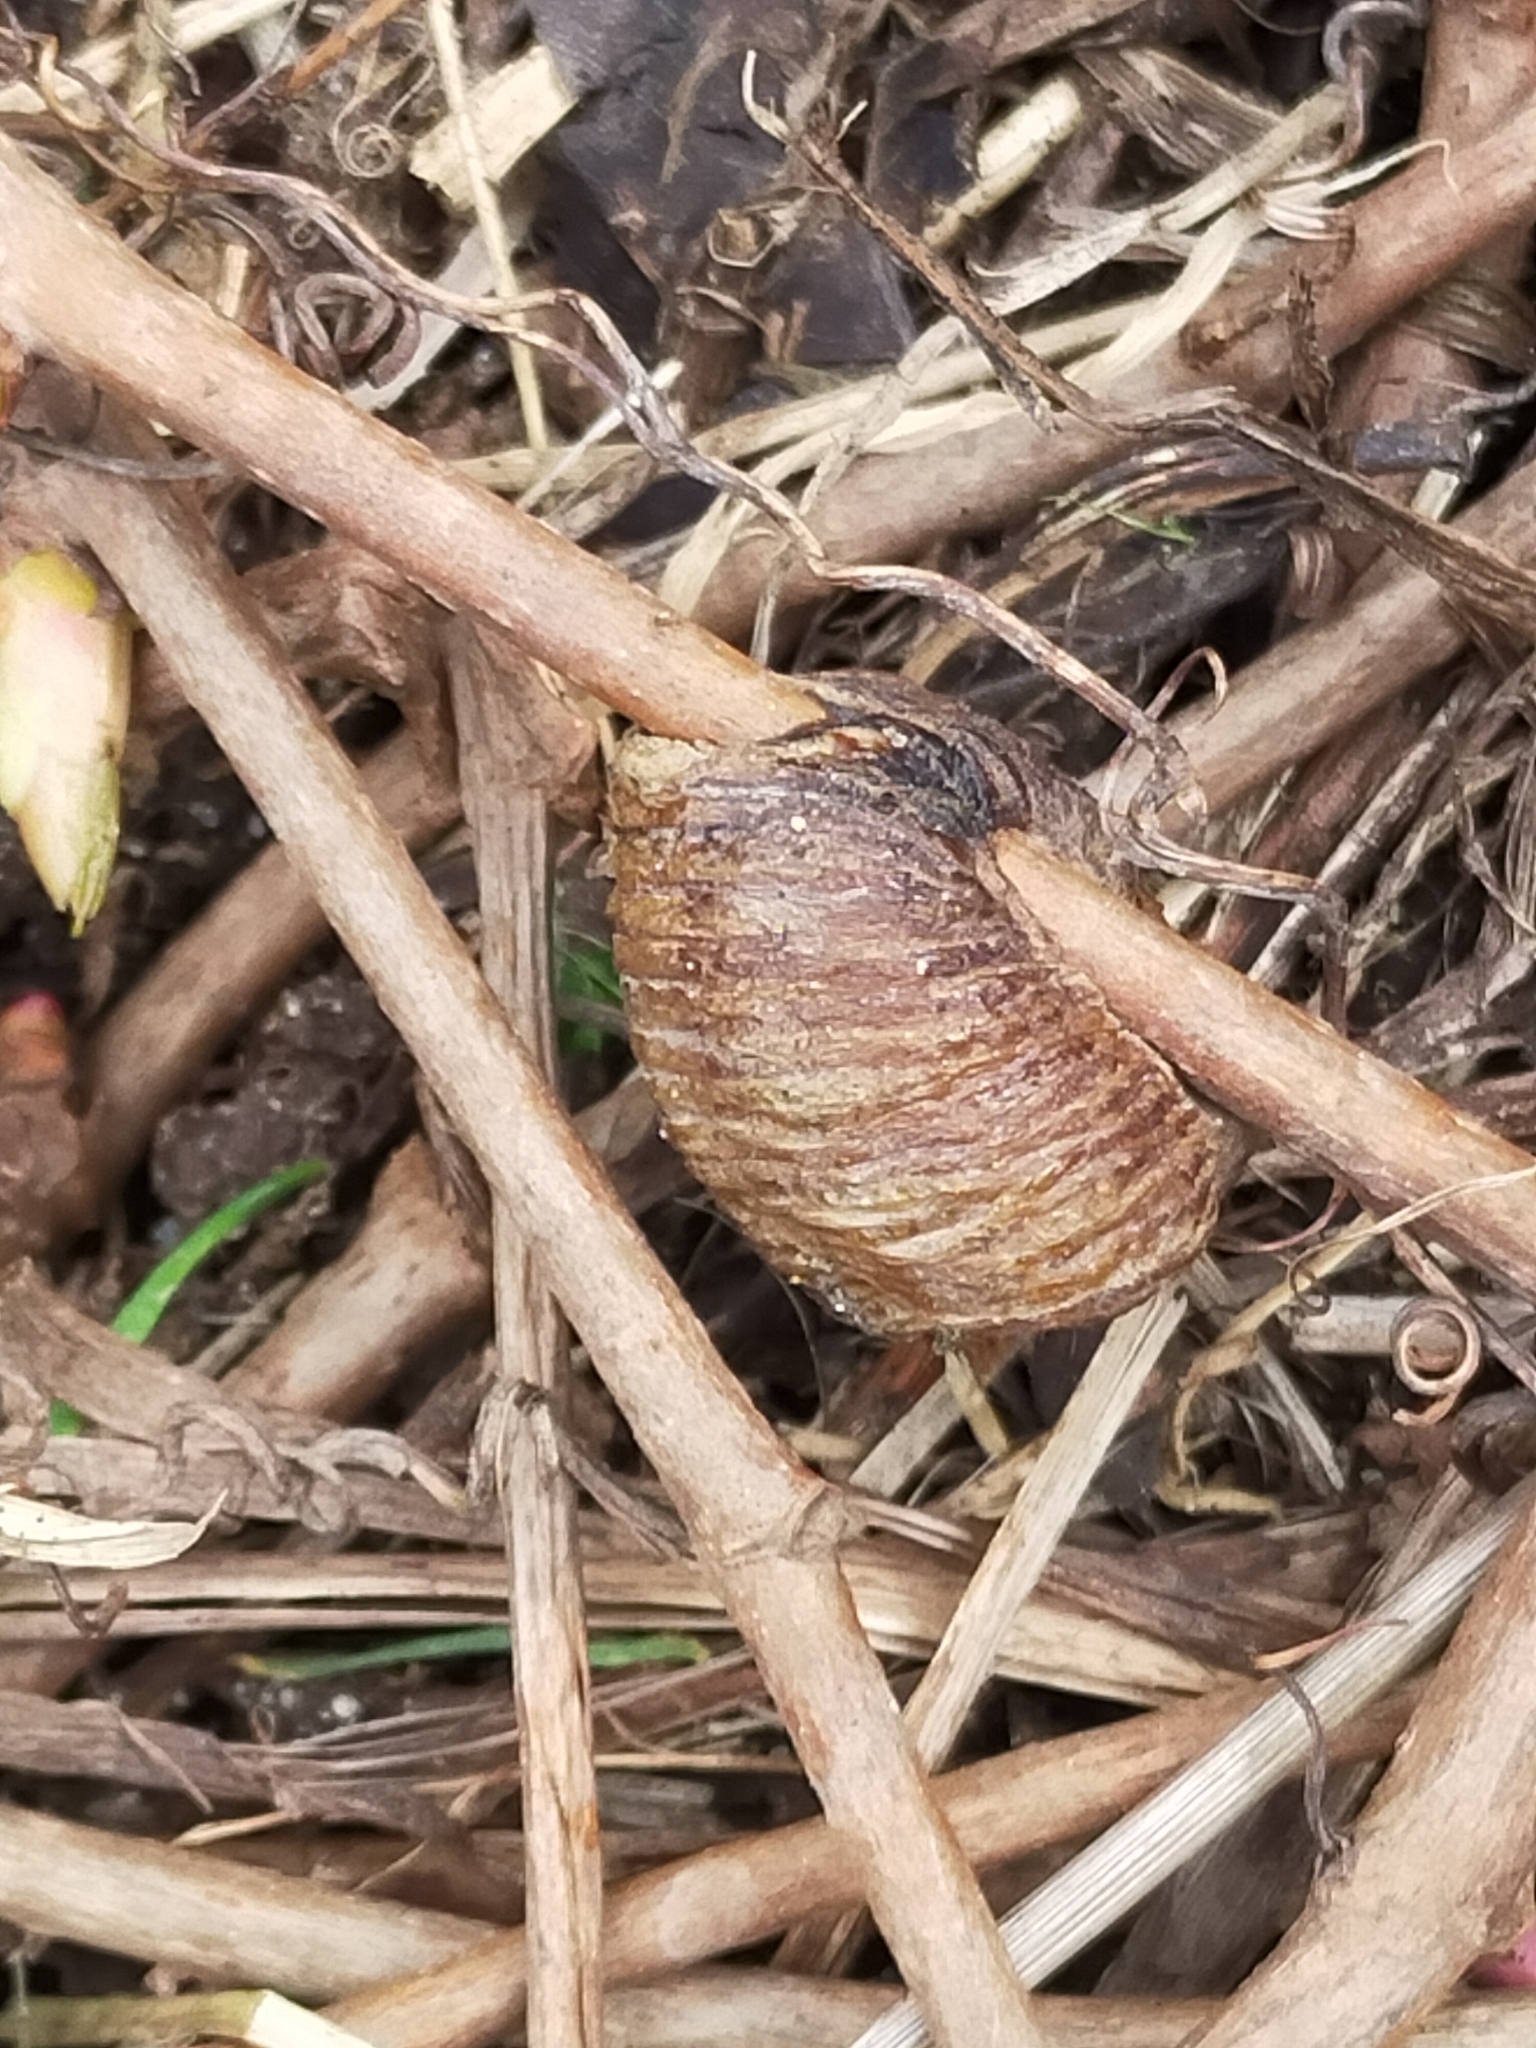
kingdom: Animalia
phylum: Arthropoda
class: Insecta
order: Mantodea
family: Mantidae
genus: Hierodula
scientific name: Hierodula transcaucasica
